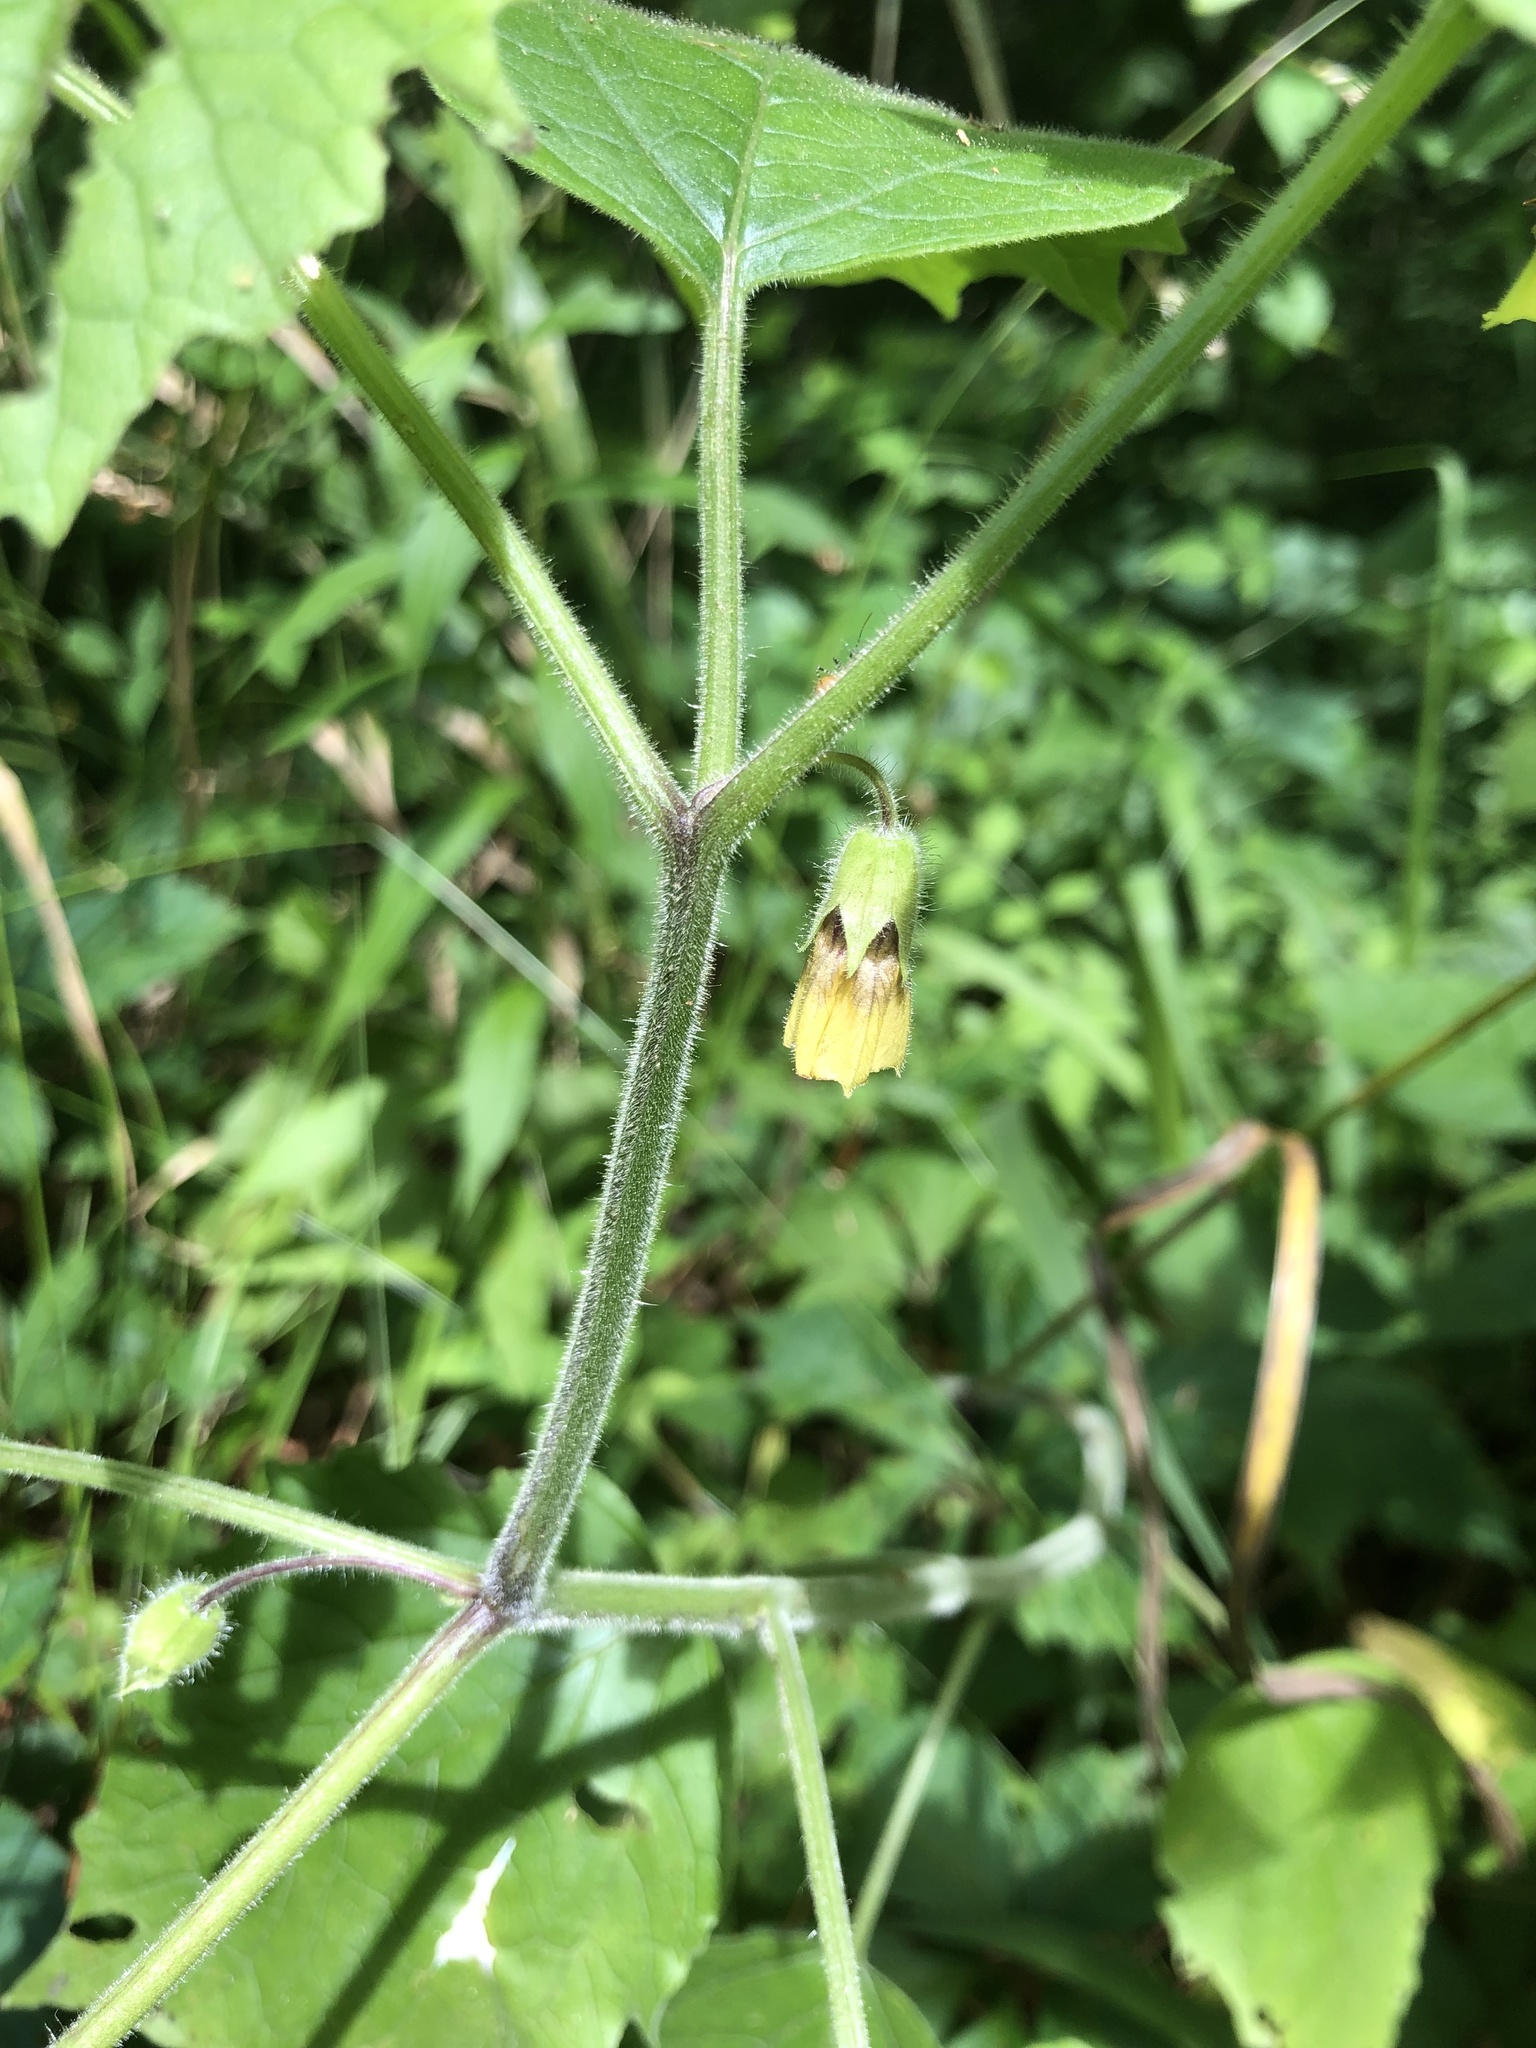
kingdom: Plantae
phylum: Tracheophyta
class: Magnoliopsida
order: Solanales
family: Solanaceae
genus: Physalis
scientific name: Physalis heterophylla
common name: Clammy ground-cherry
